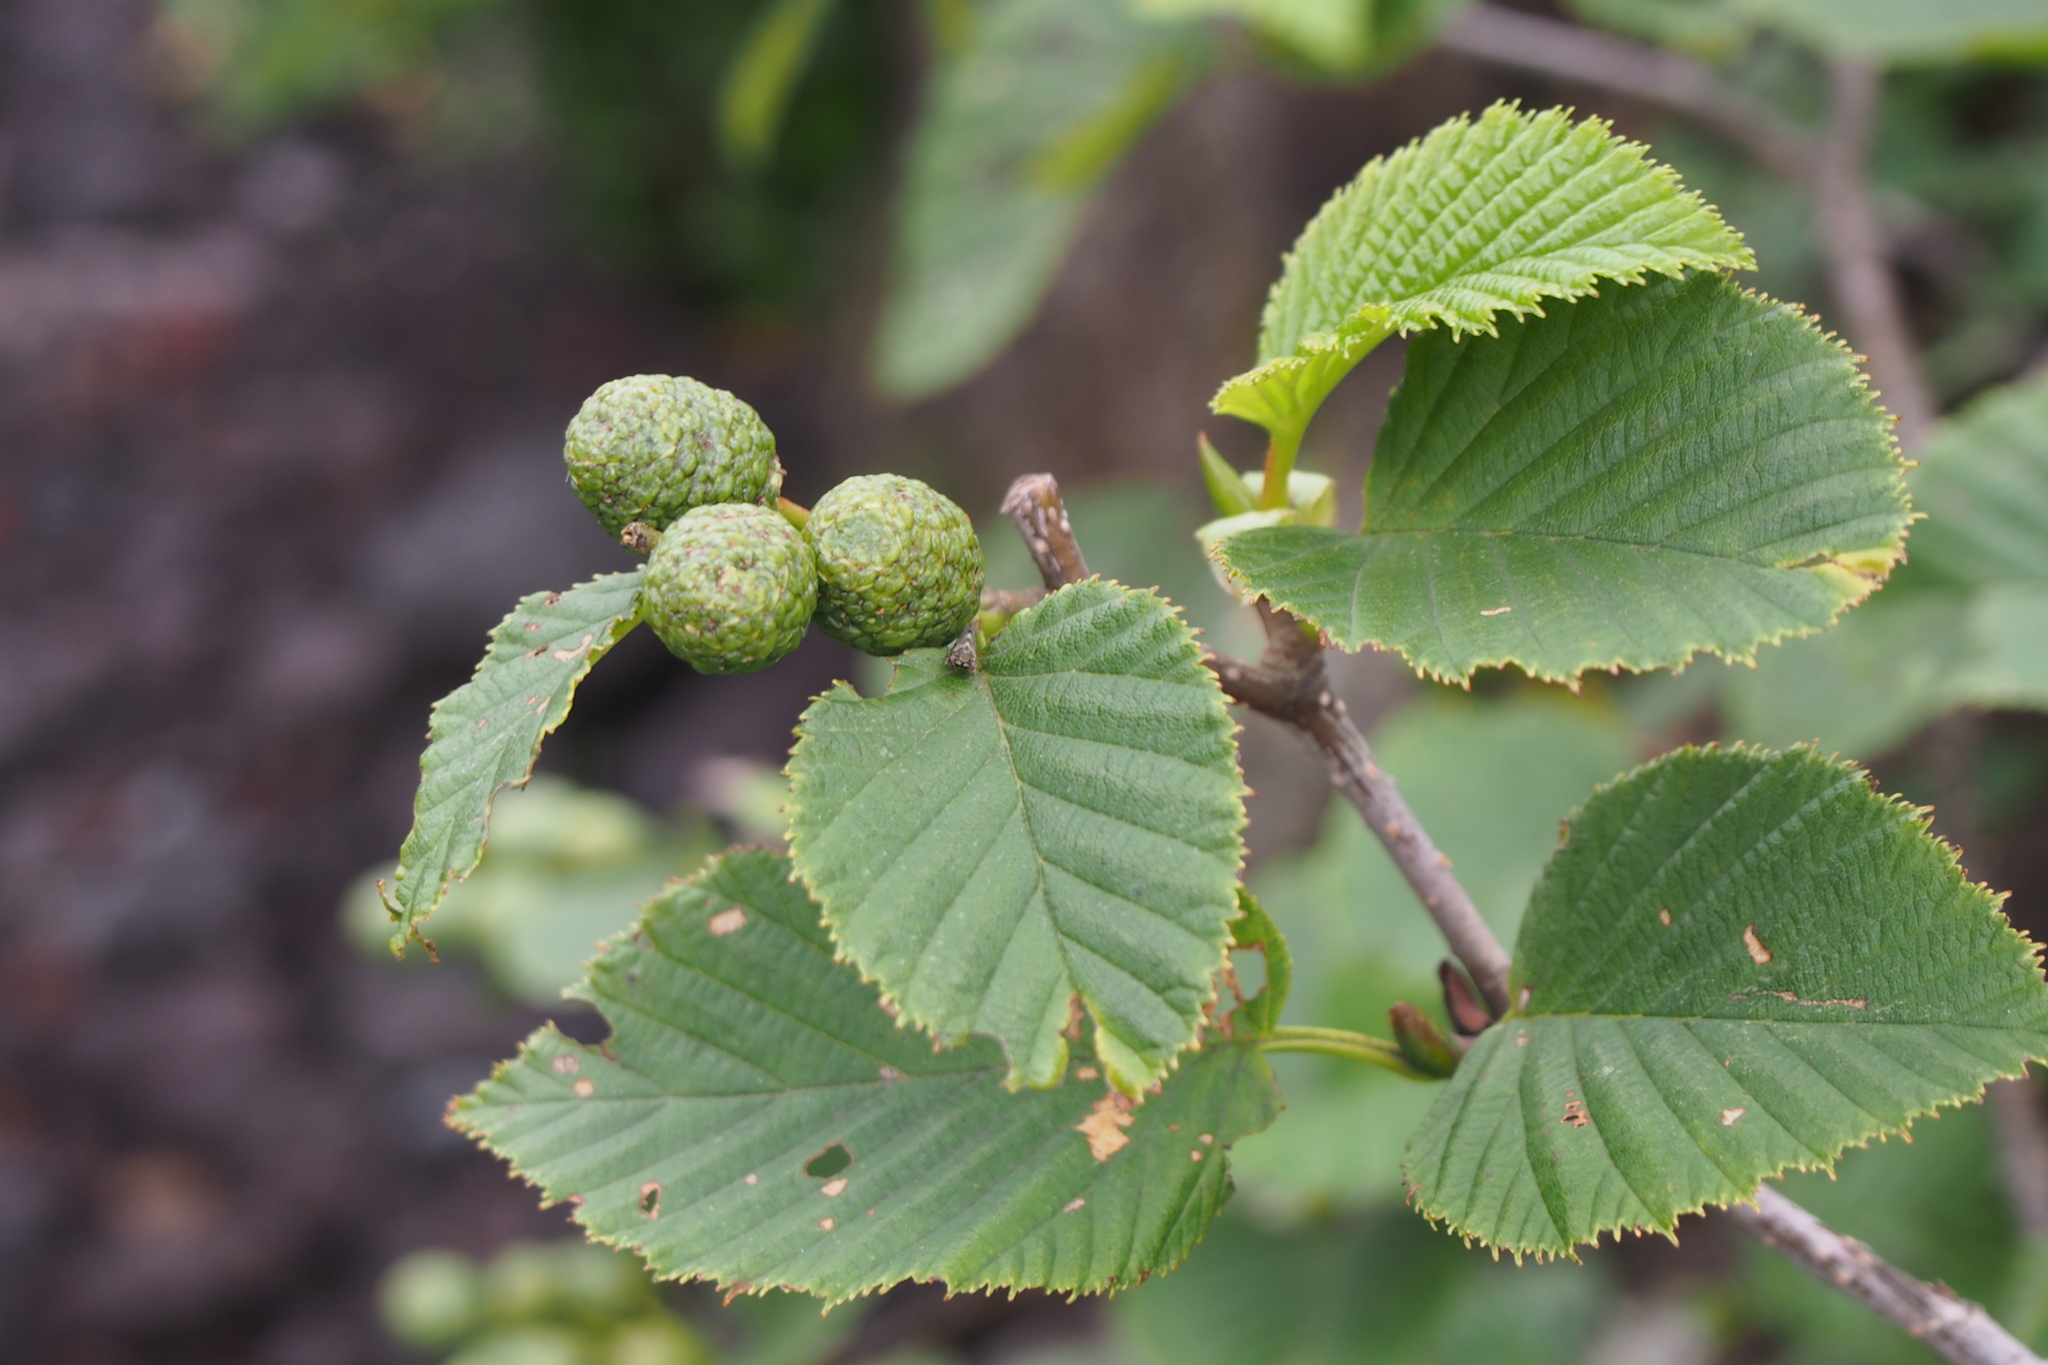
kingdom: Plantae
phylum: Tracheophyta
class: Magnoliopsida
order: Fagales
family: Betulaceae
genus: Alnus
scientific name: Alnus maximowiczii
